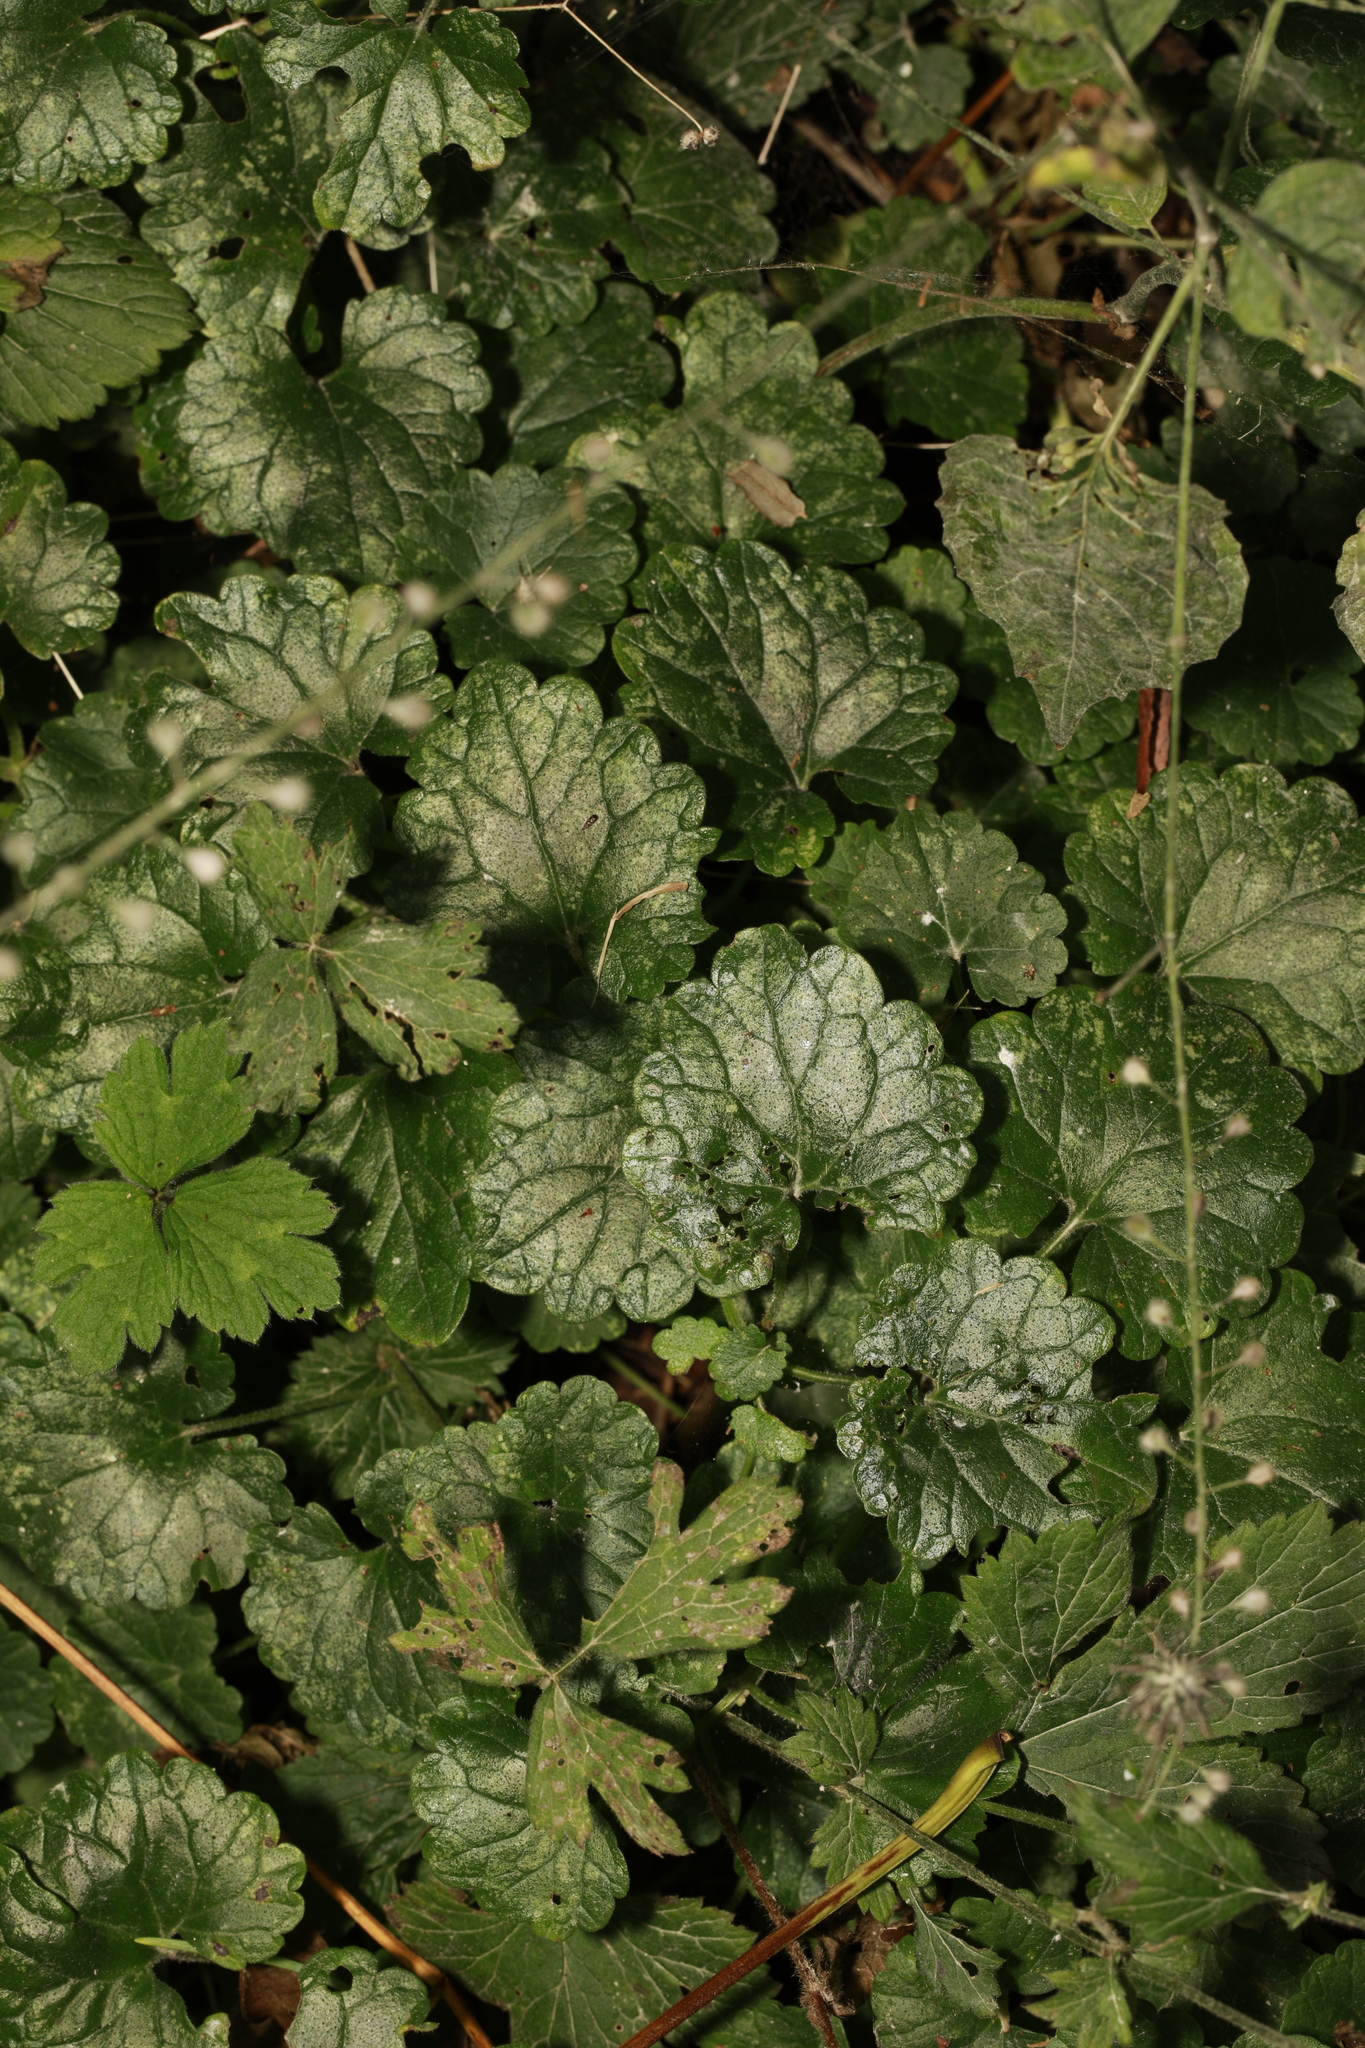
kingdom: Plantae
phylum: Tracheophyta
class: Magnoliopsida
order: Lamiales
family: Lamiaceae
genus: Glechoma
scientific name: Glechoma hederacea
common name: Ground ivy
